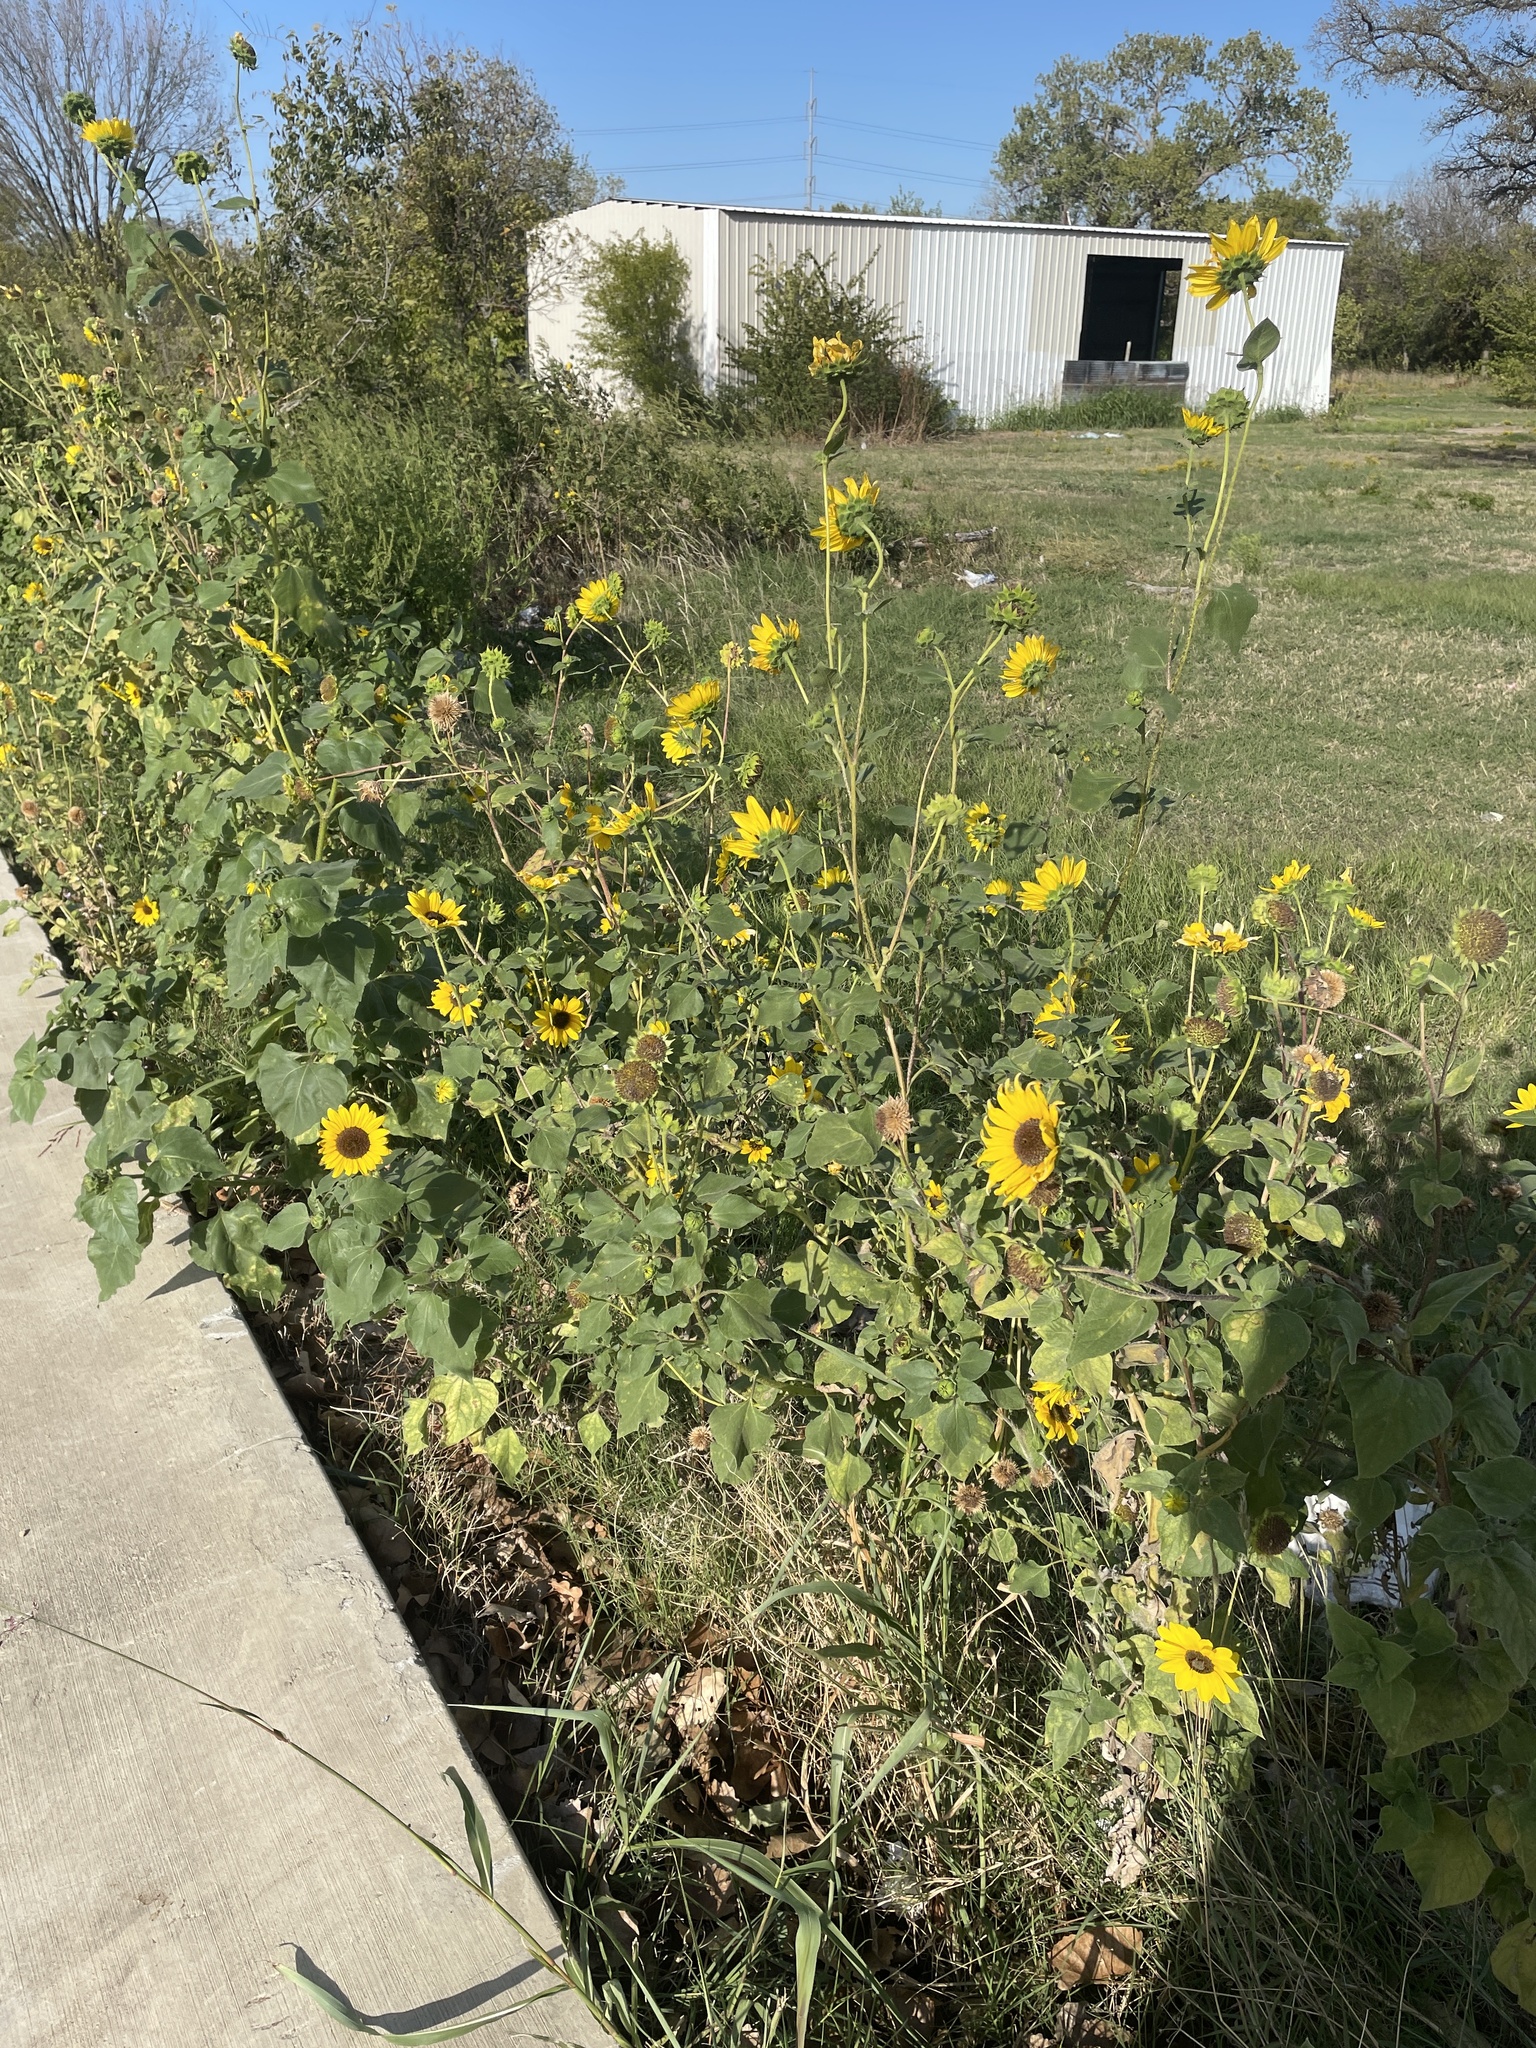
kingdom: Plantae
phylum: Tracheophyta
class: Magnoliopsida
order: Asterales
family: Asteraceae
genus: Helianthus
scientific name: Helianthus annuus
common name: Sunflower
